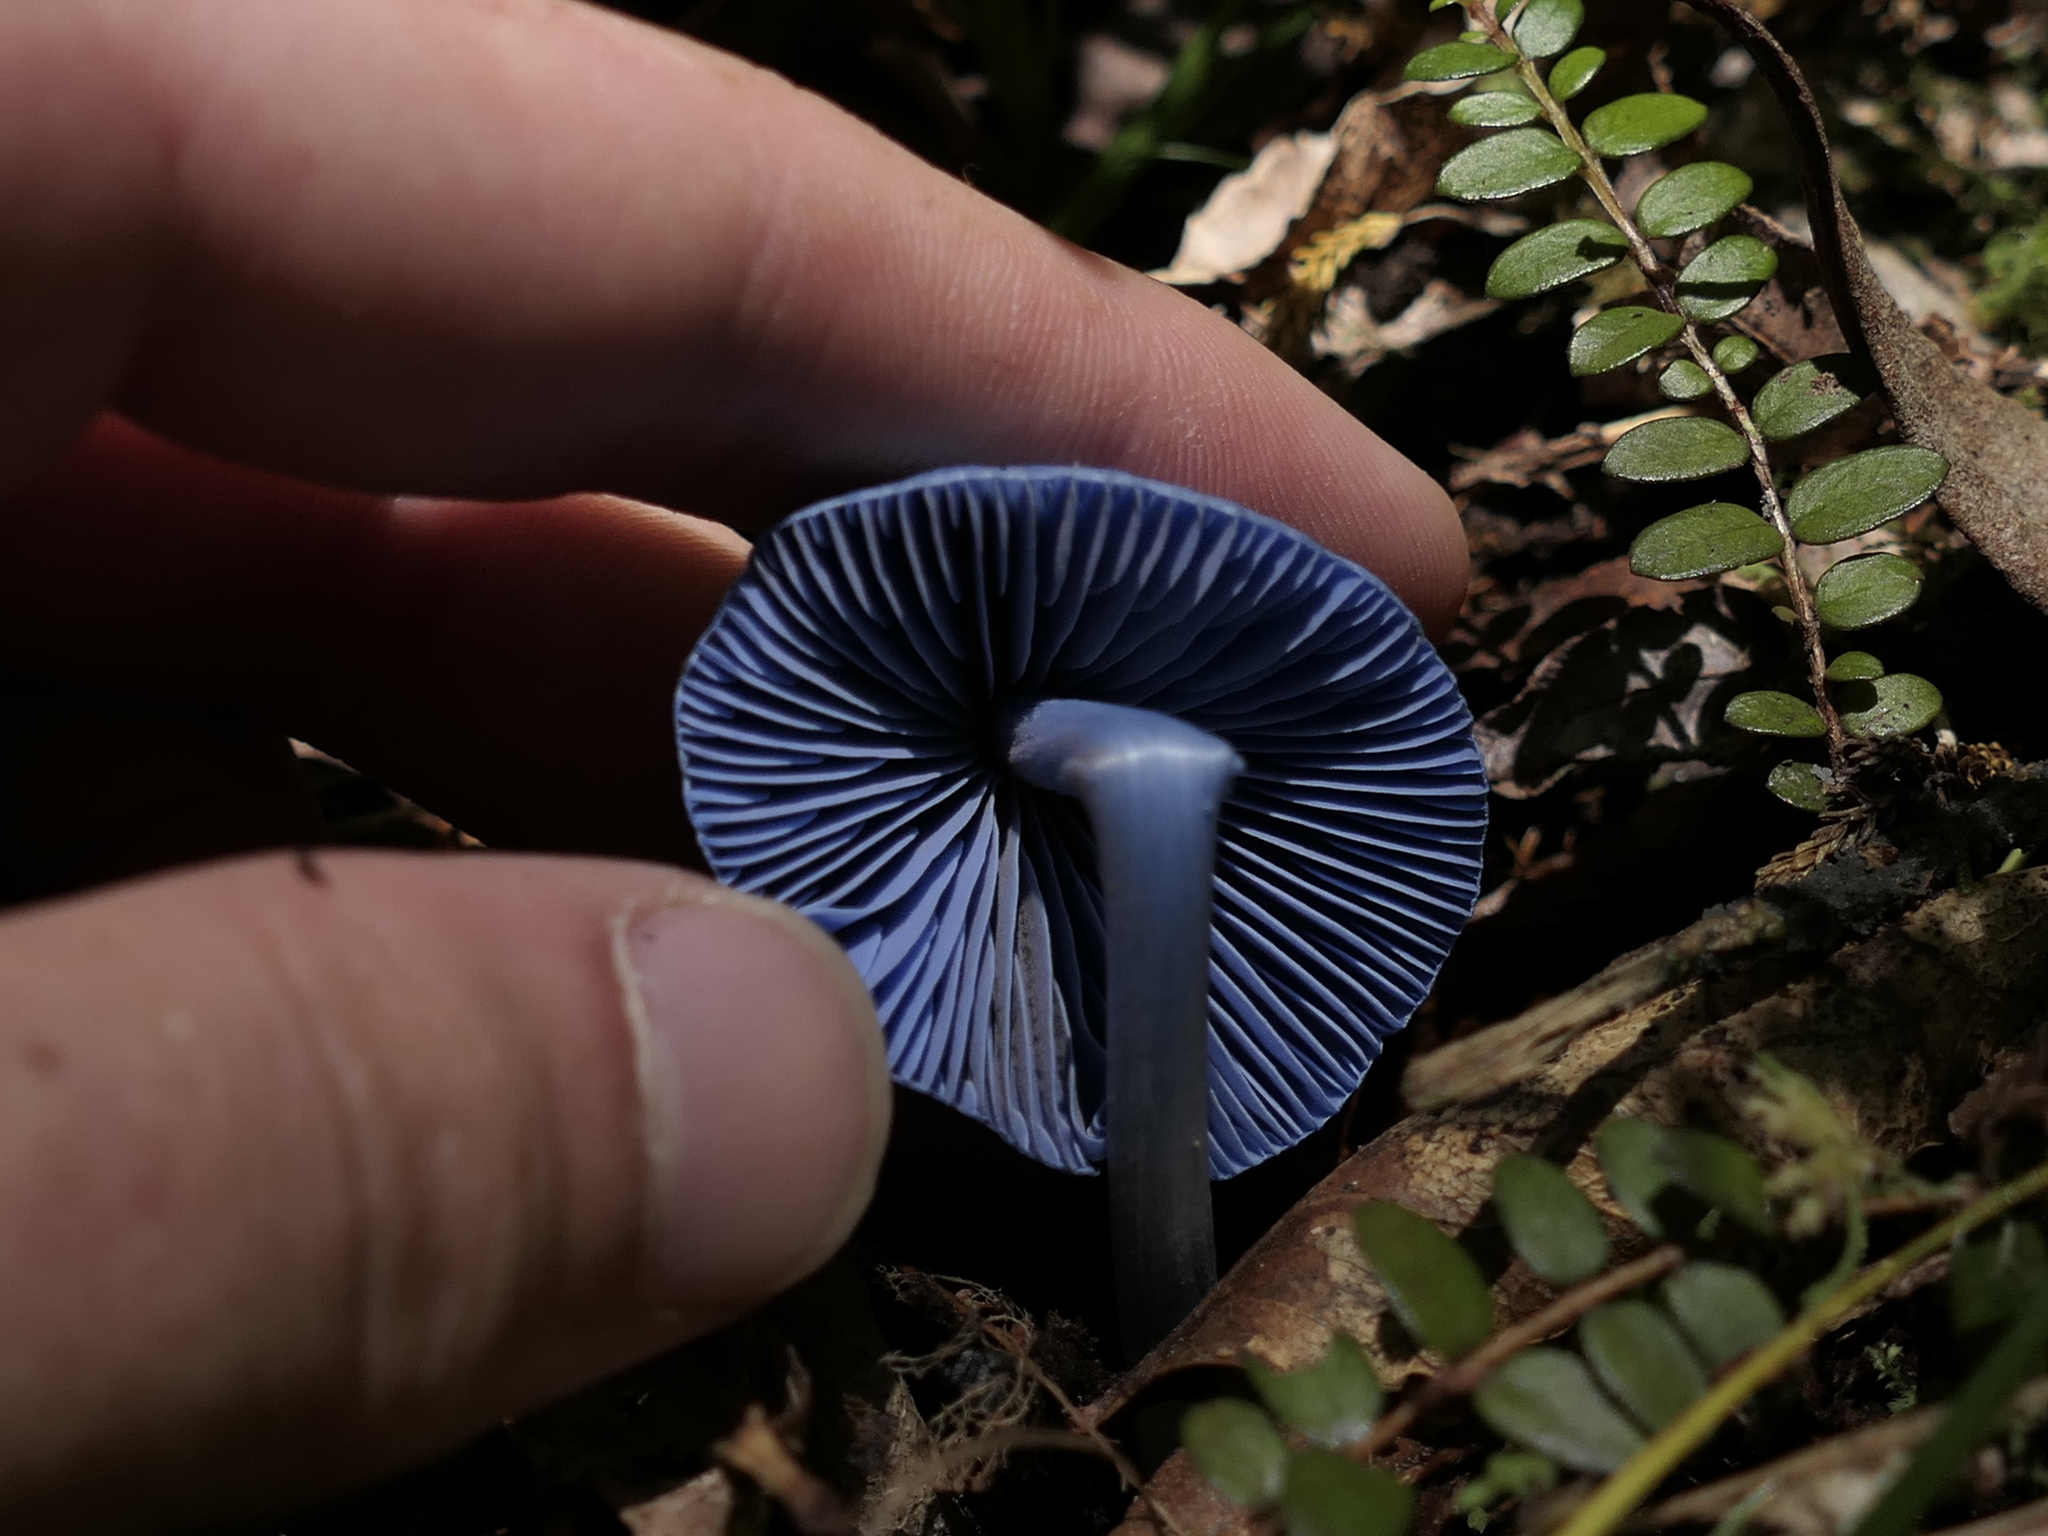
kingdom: Fungi
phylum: Basidiomycota
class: Agaricomycetes
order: Agaricales
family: Entolomataceae
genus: Entoloma
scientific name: Entoloma hochstetteri
